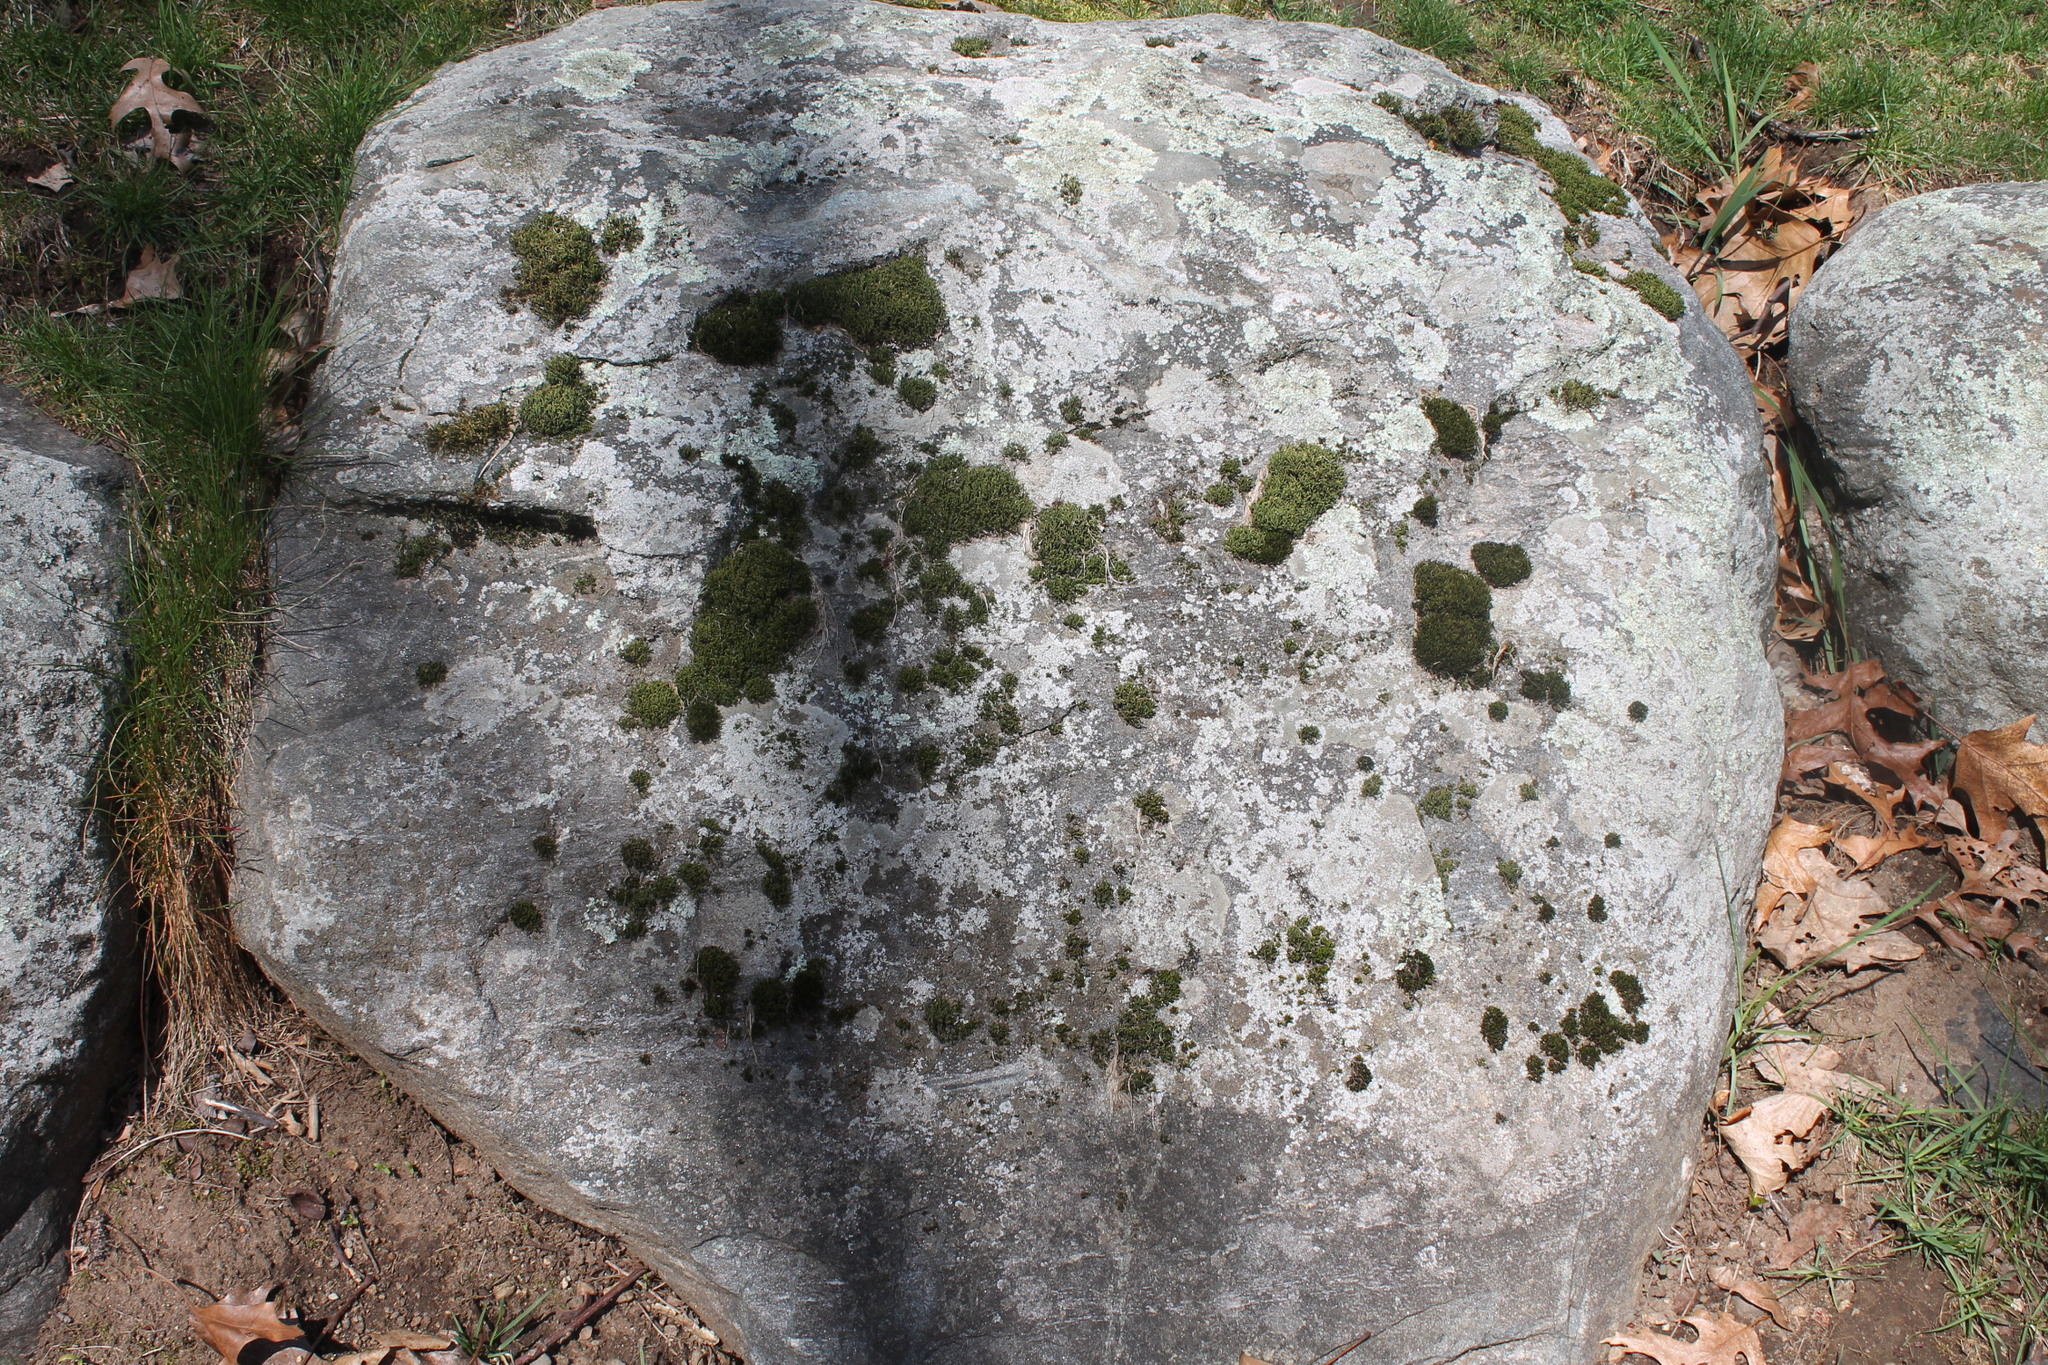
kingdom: Plantae
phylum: Bryophyta
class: Bryopsida
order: Hedwigiales
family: Hedwigiaceae
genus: Hedwigia
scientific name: Hedwigia ciliata
